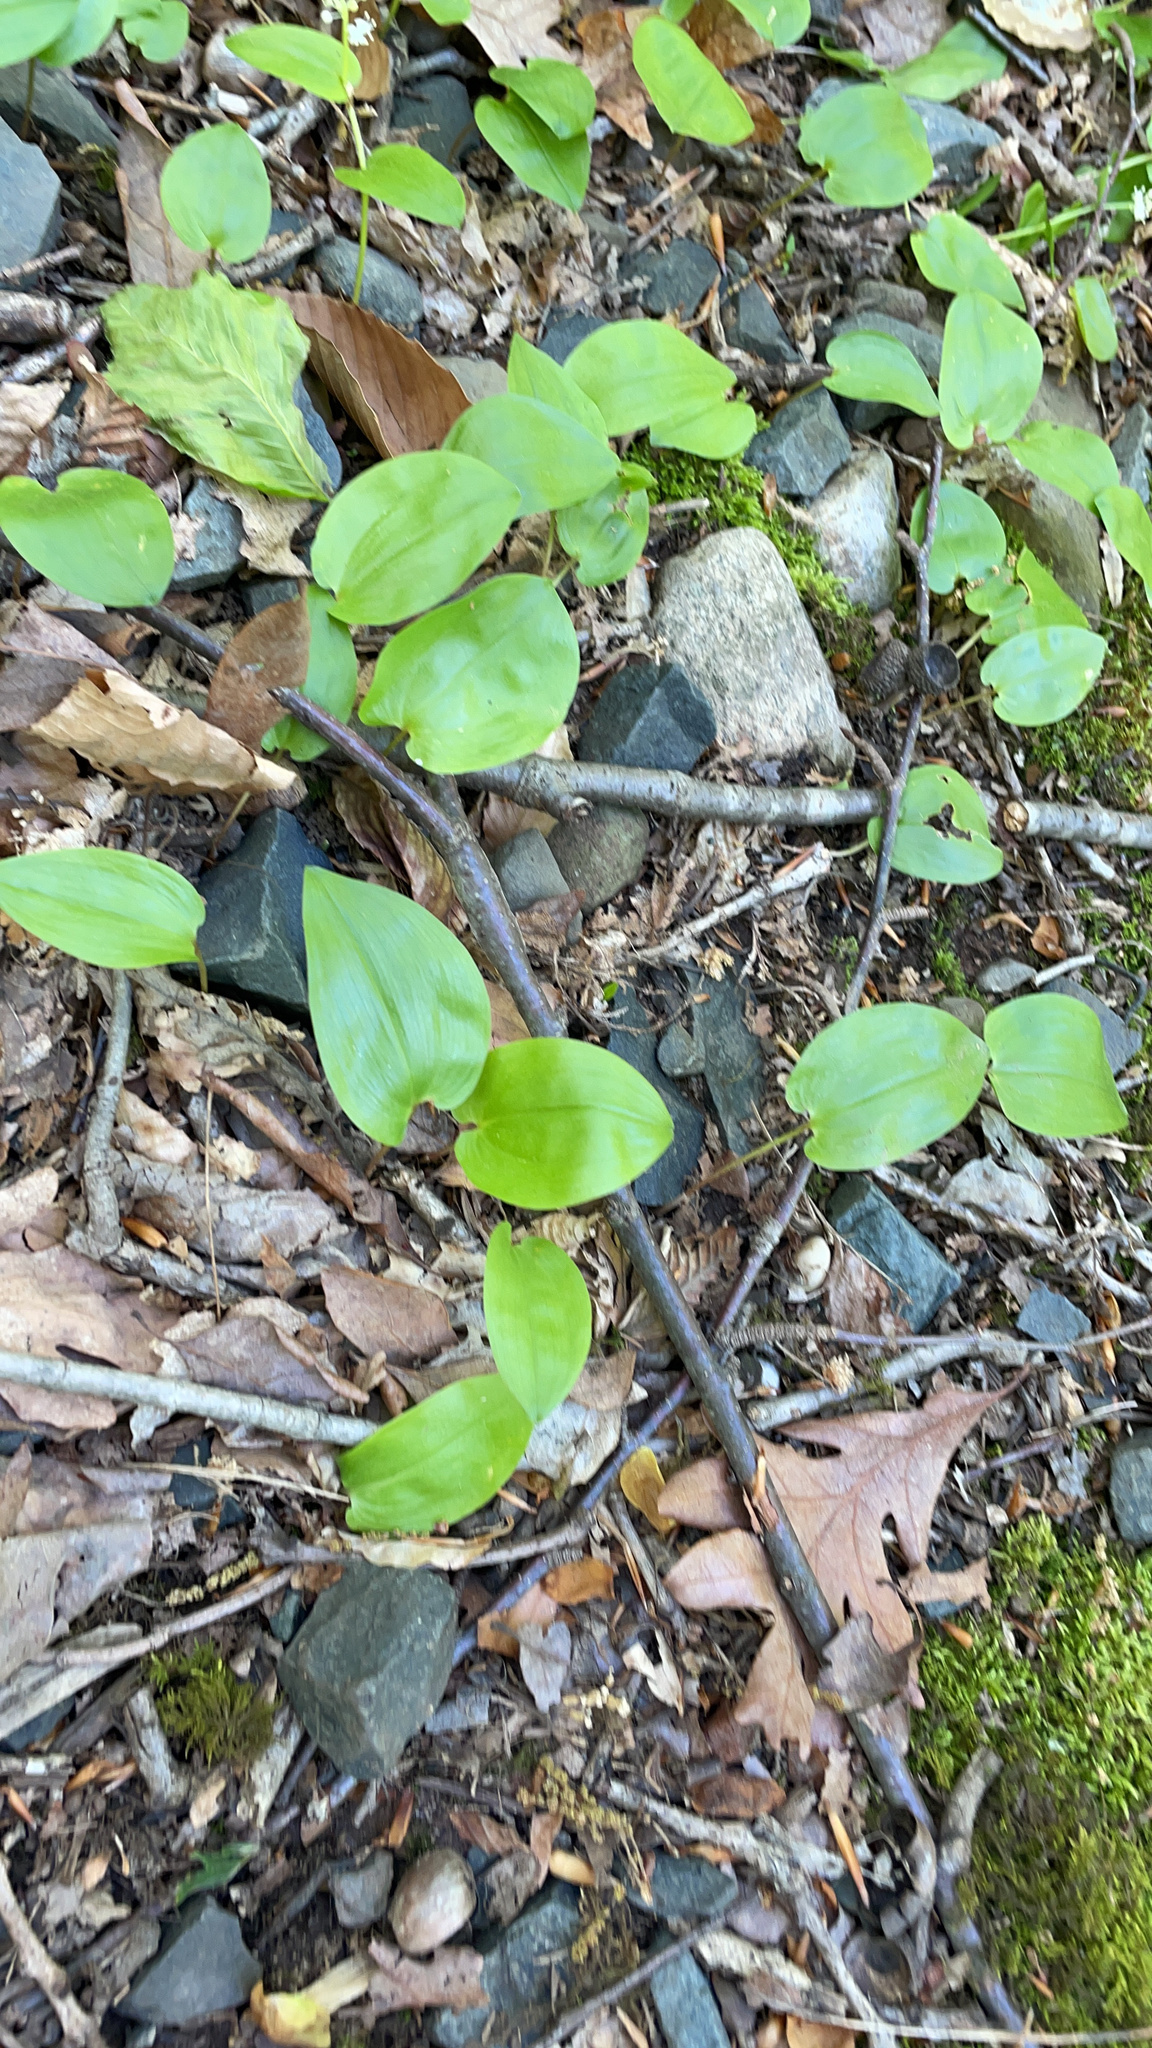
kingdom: Plantae
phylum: Tracheophyta
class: Liliopsida
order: Asparagales
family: Asparagaceae
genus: Maianthemum
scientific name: Maianthemum canadense
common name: False lily-of-the-valley
